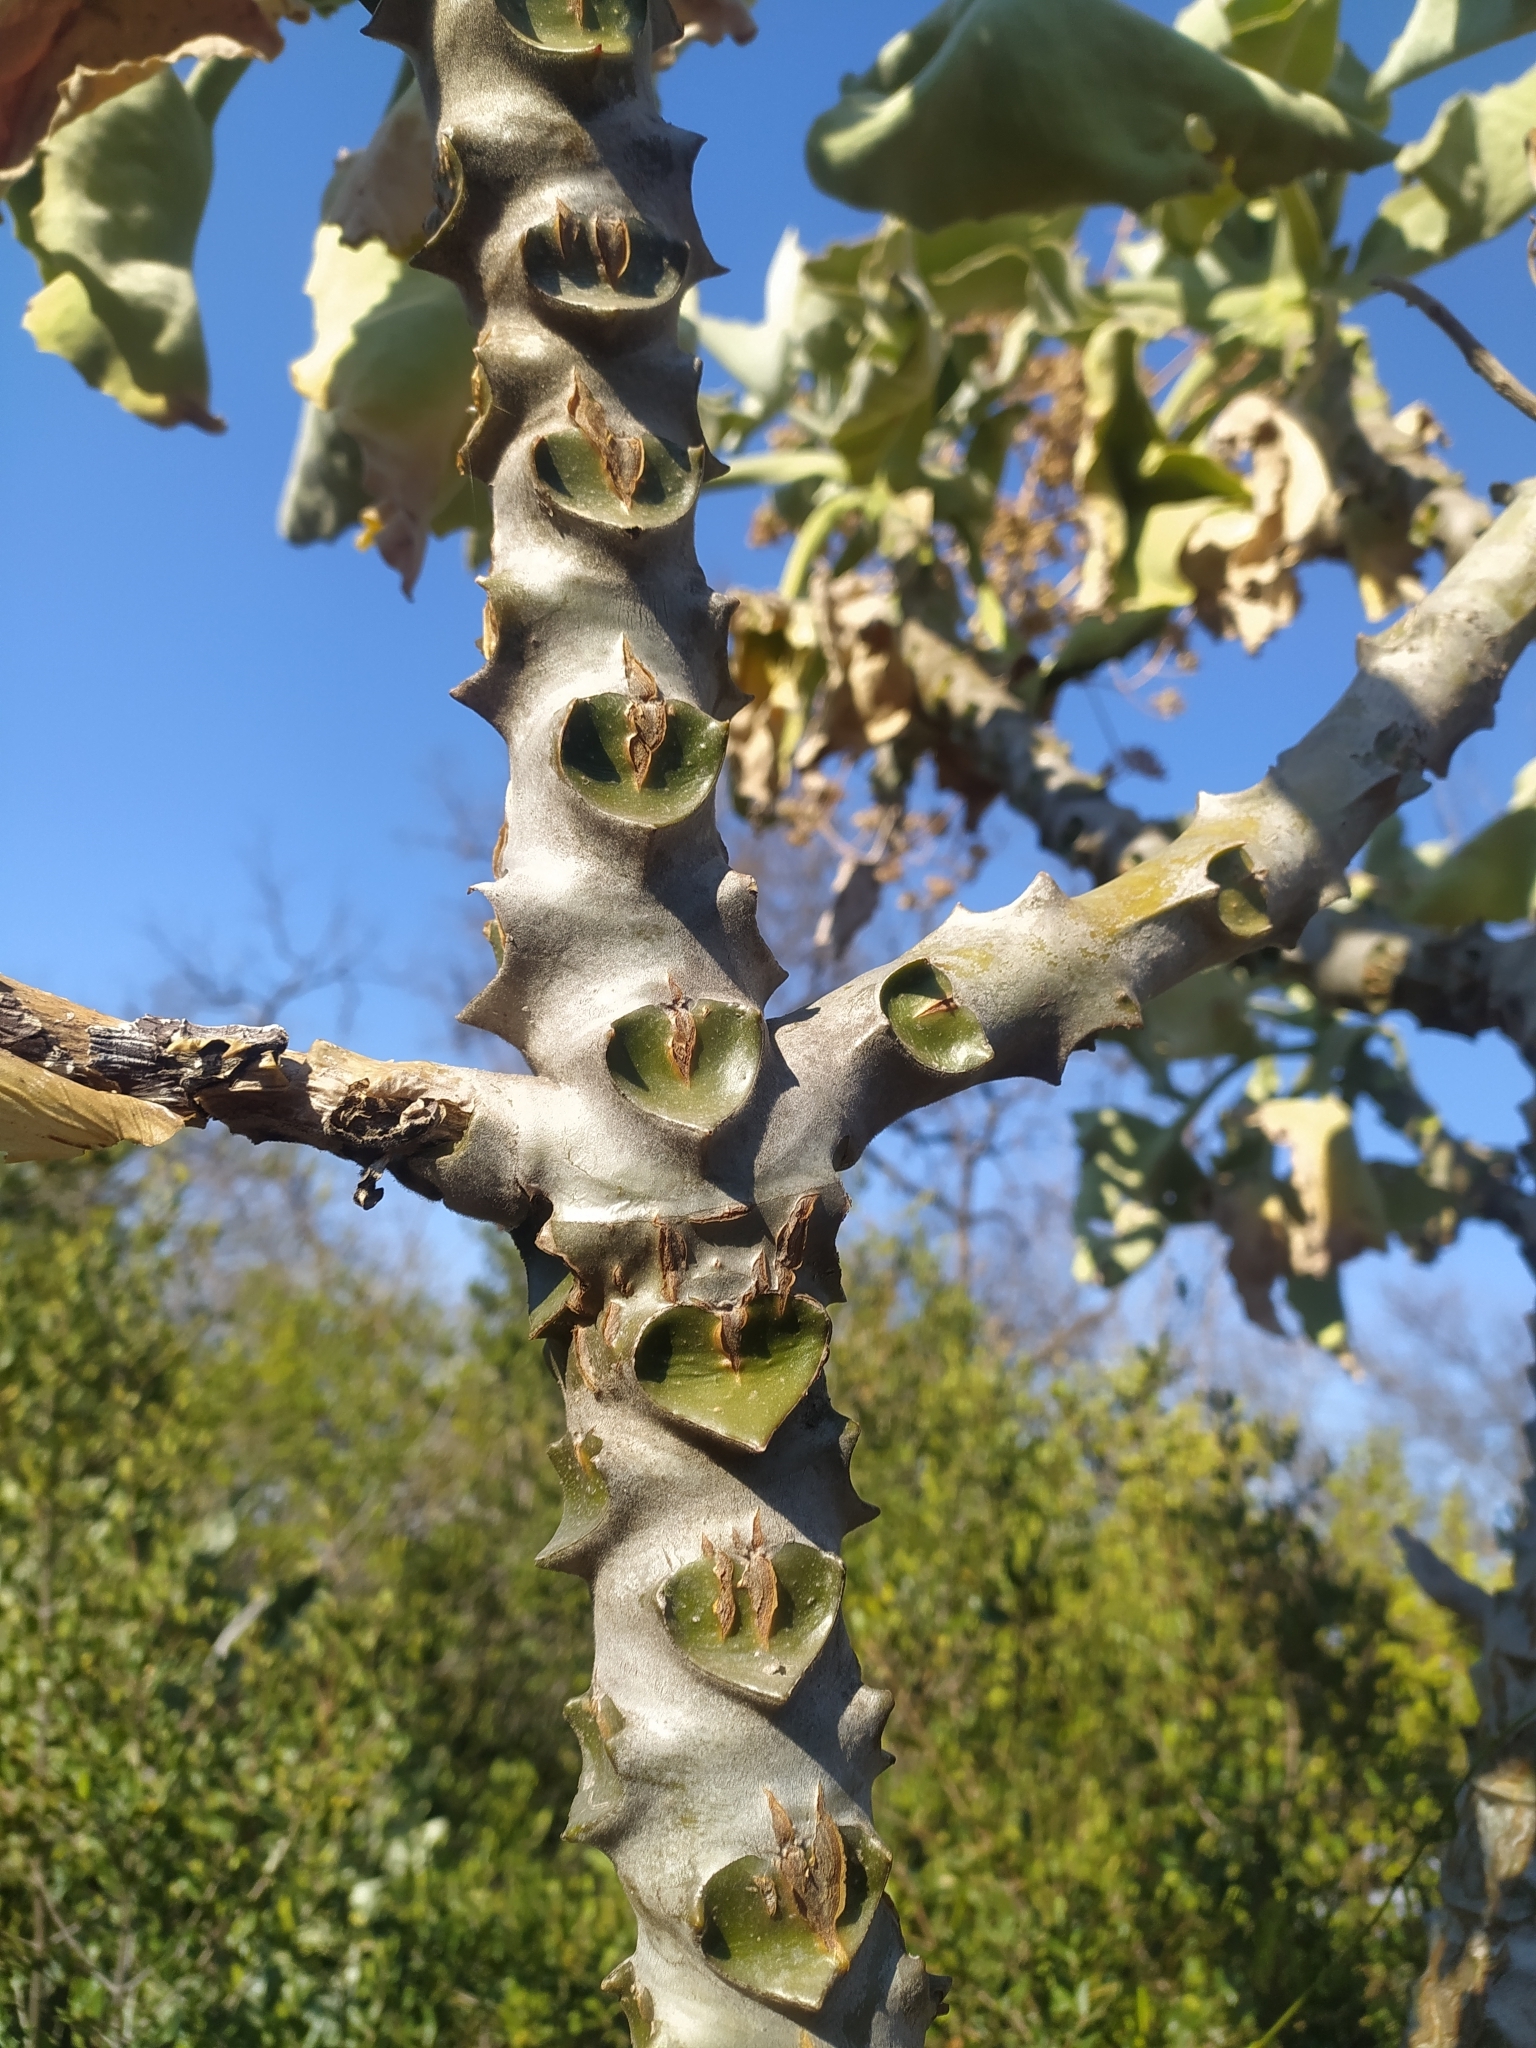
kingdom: Plantae
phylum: Tracheophyta
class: Magnoliopsida
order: Saxifragales
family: Crassulaceae
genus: Kalanchoe
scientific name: Kalanchoe beharensis
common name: Velvet leaf
